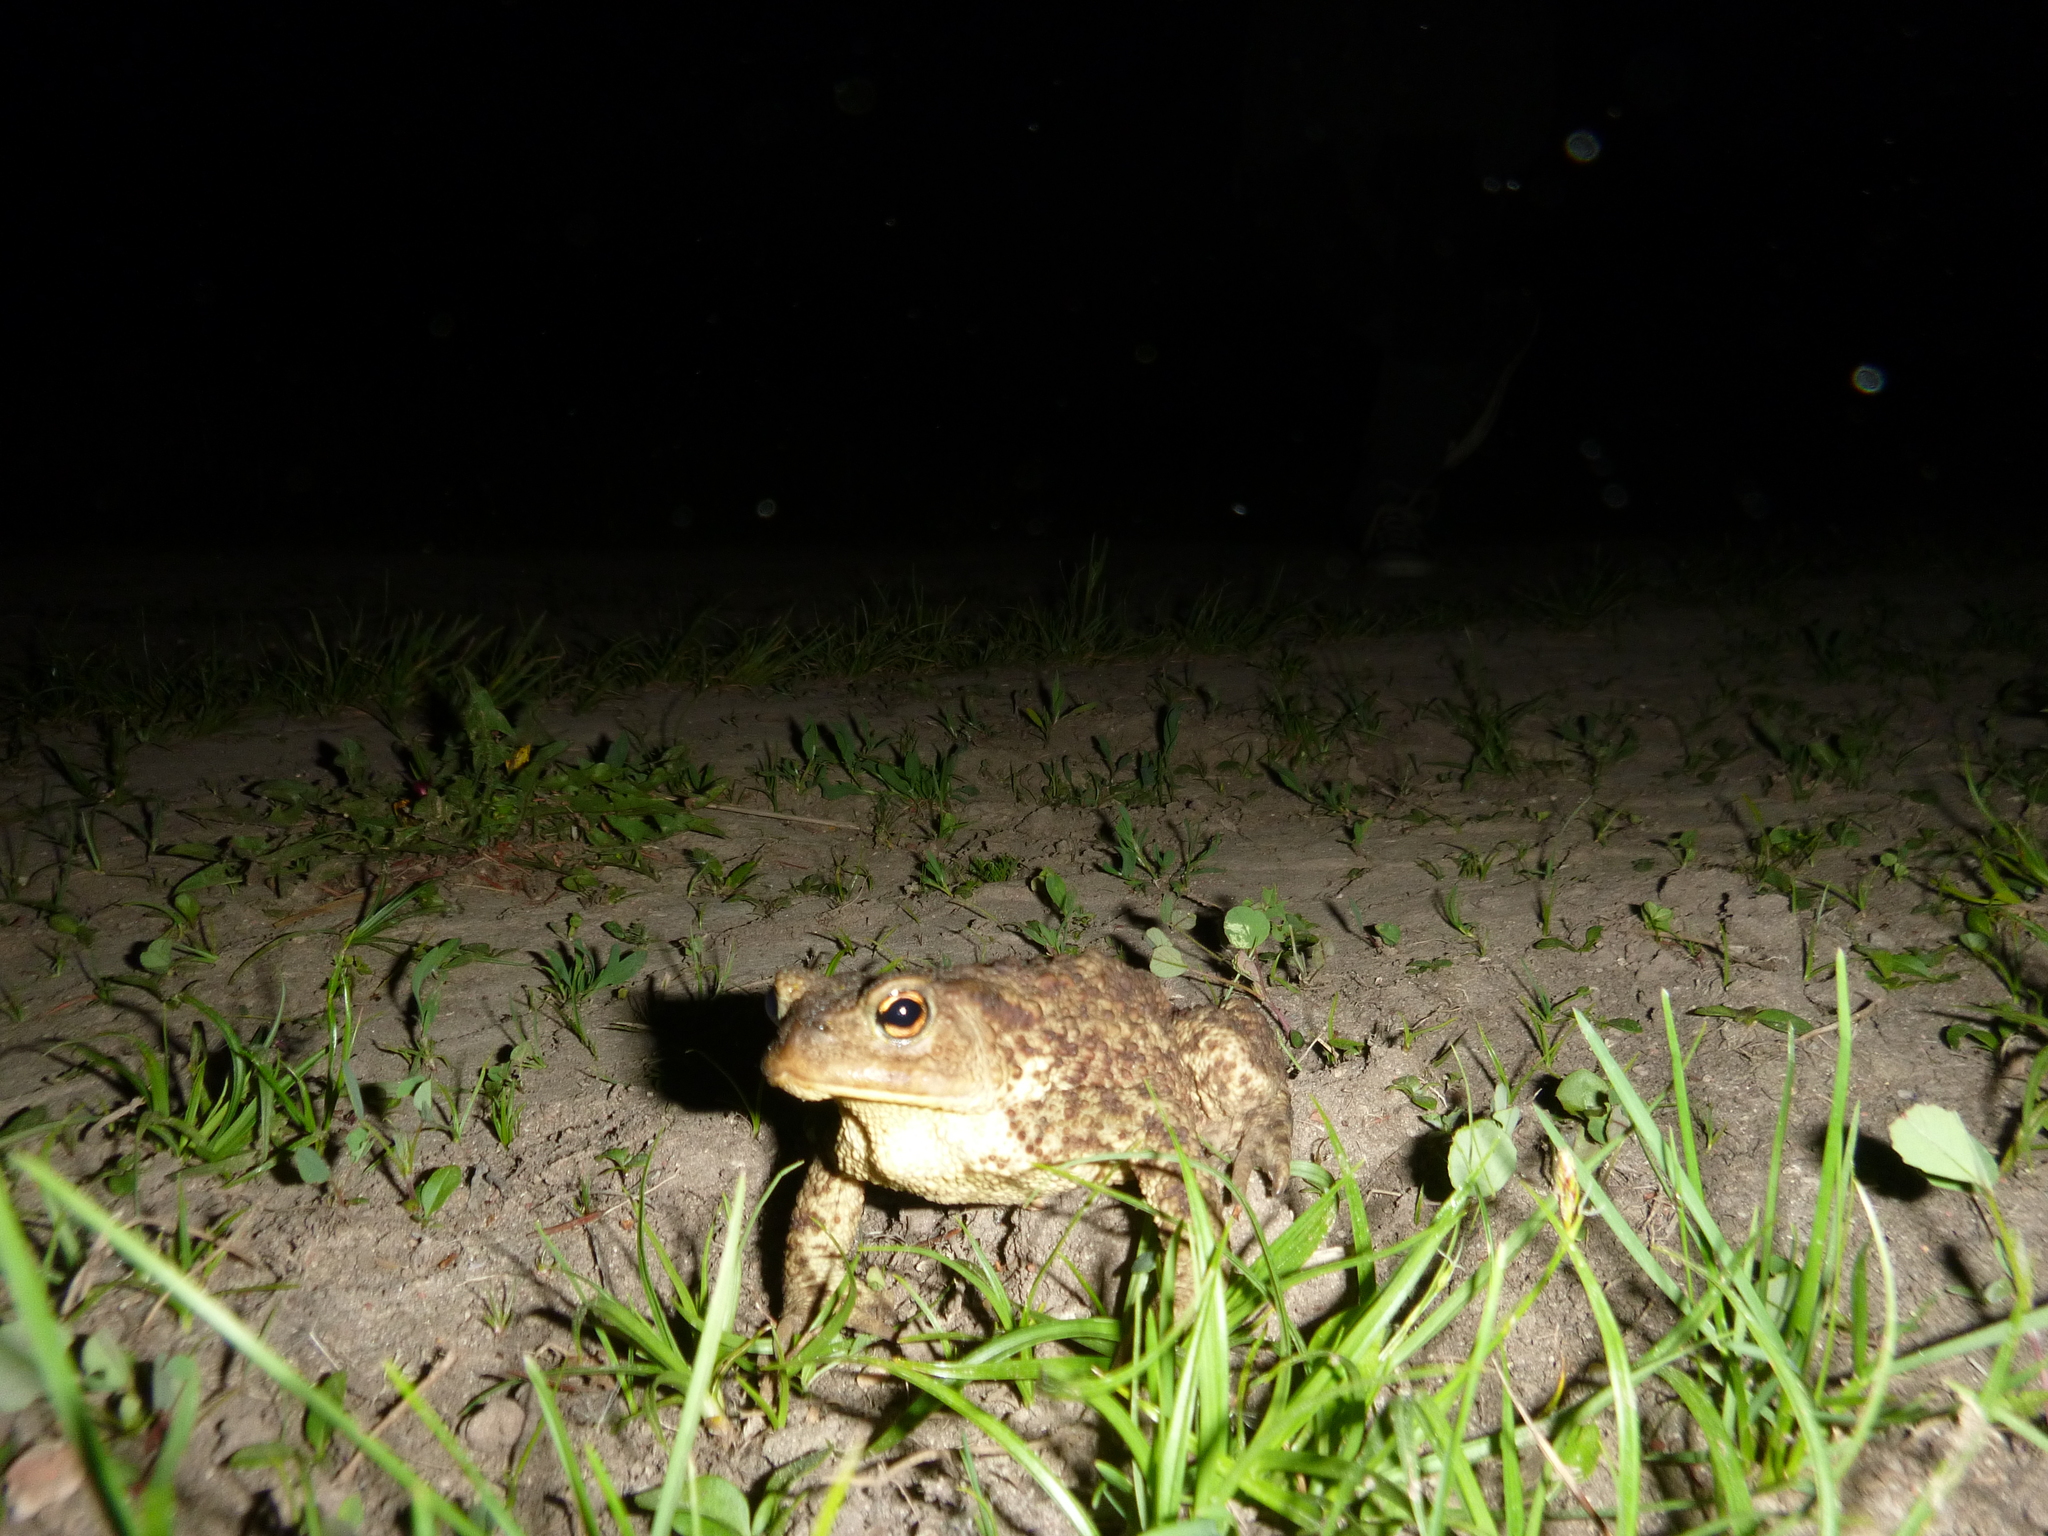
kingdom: Animalia
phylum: Chordata
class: Amphibia
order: Anura
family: Bufonidae
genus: Bufo
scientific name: Bufo bufo
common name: Common toad
